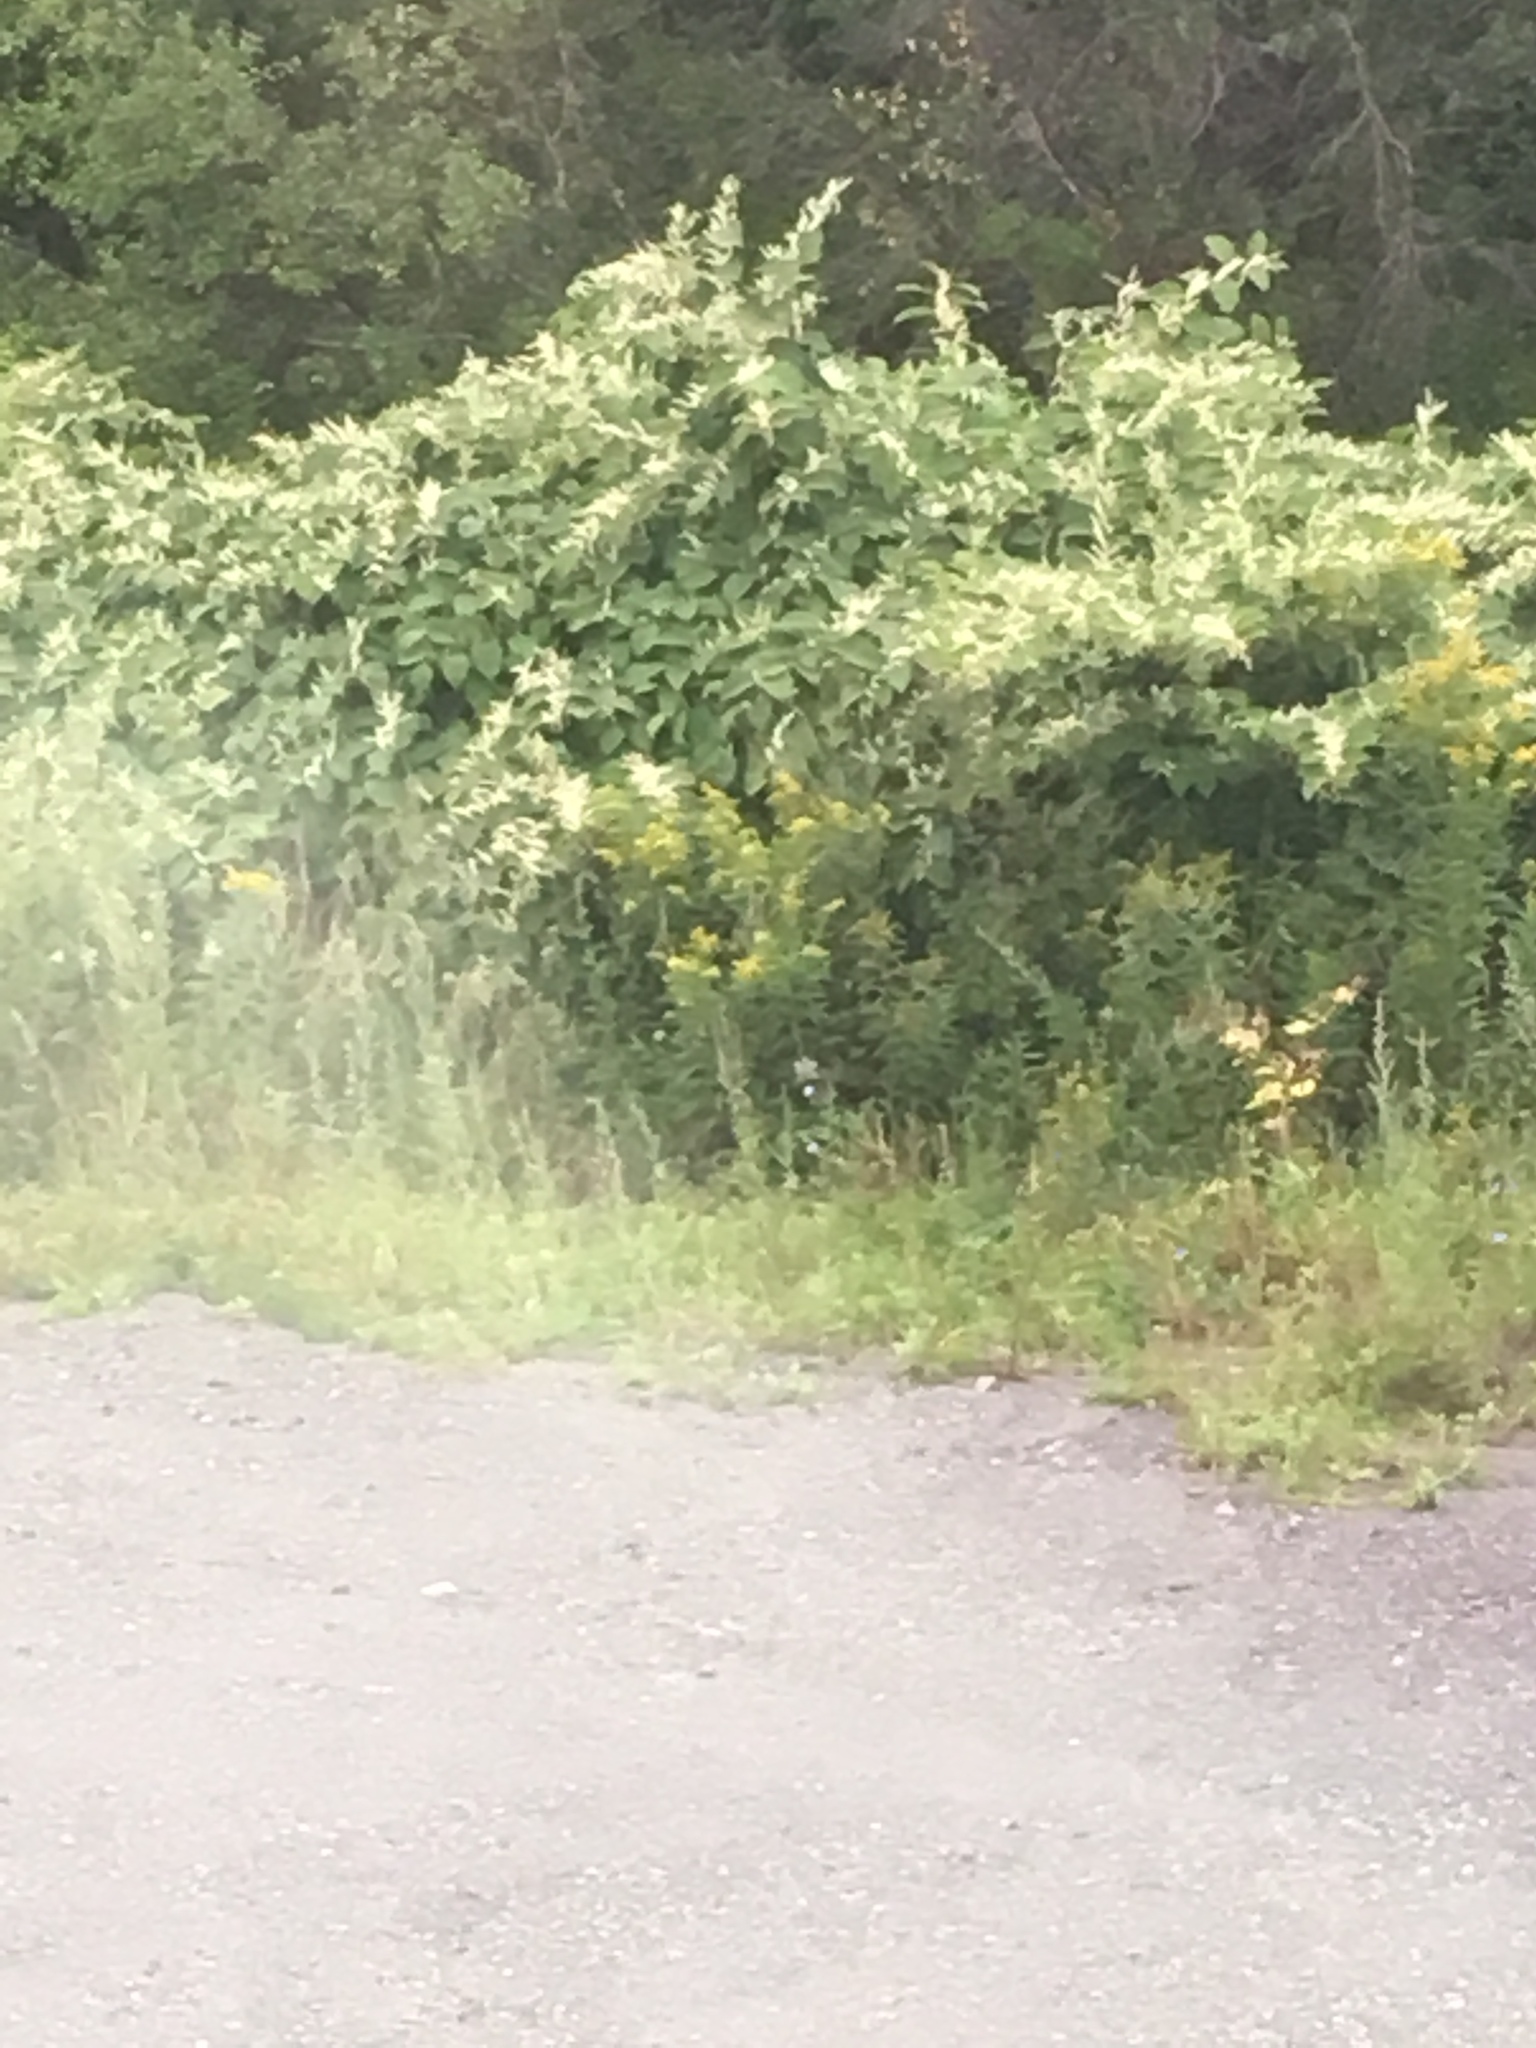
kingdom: Plantae
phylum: Tracheophyta
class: Magnoliopsida
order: Caryophyllales
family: Polygonaceae
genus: Reynoutria
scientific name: Reynoutria japonica
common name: Japanese knotweed
